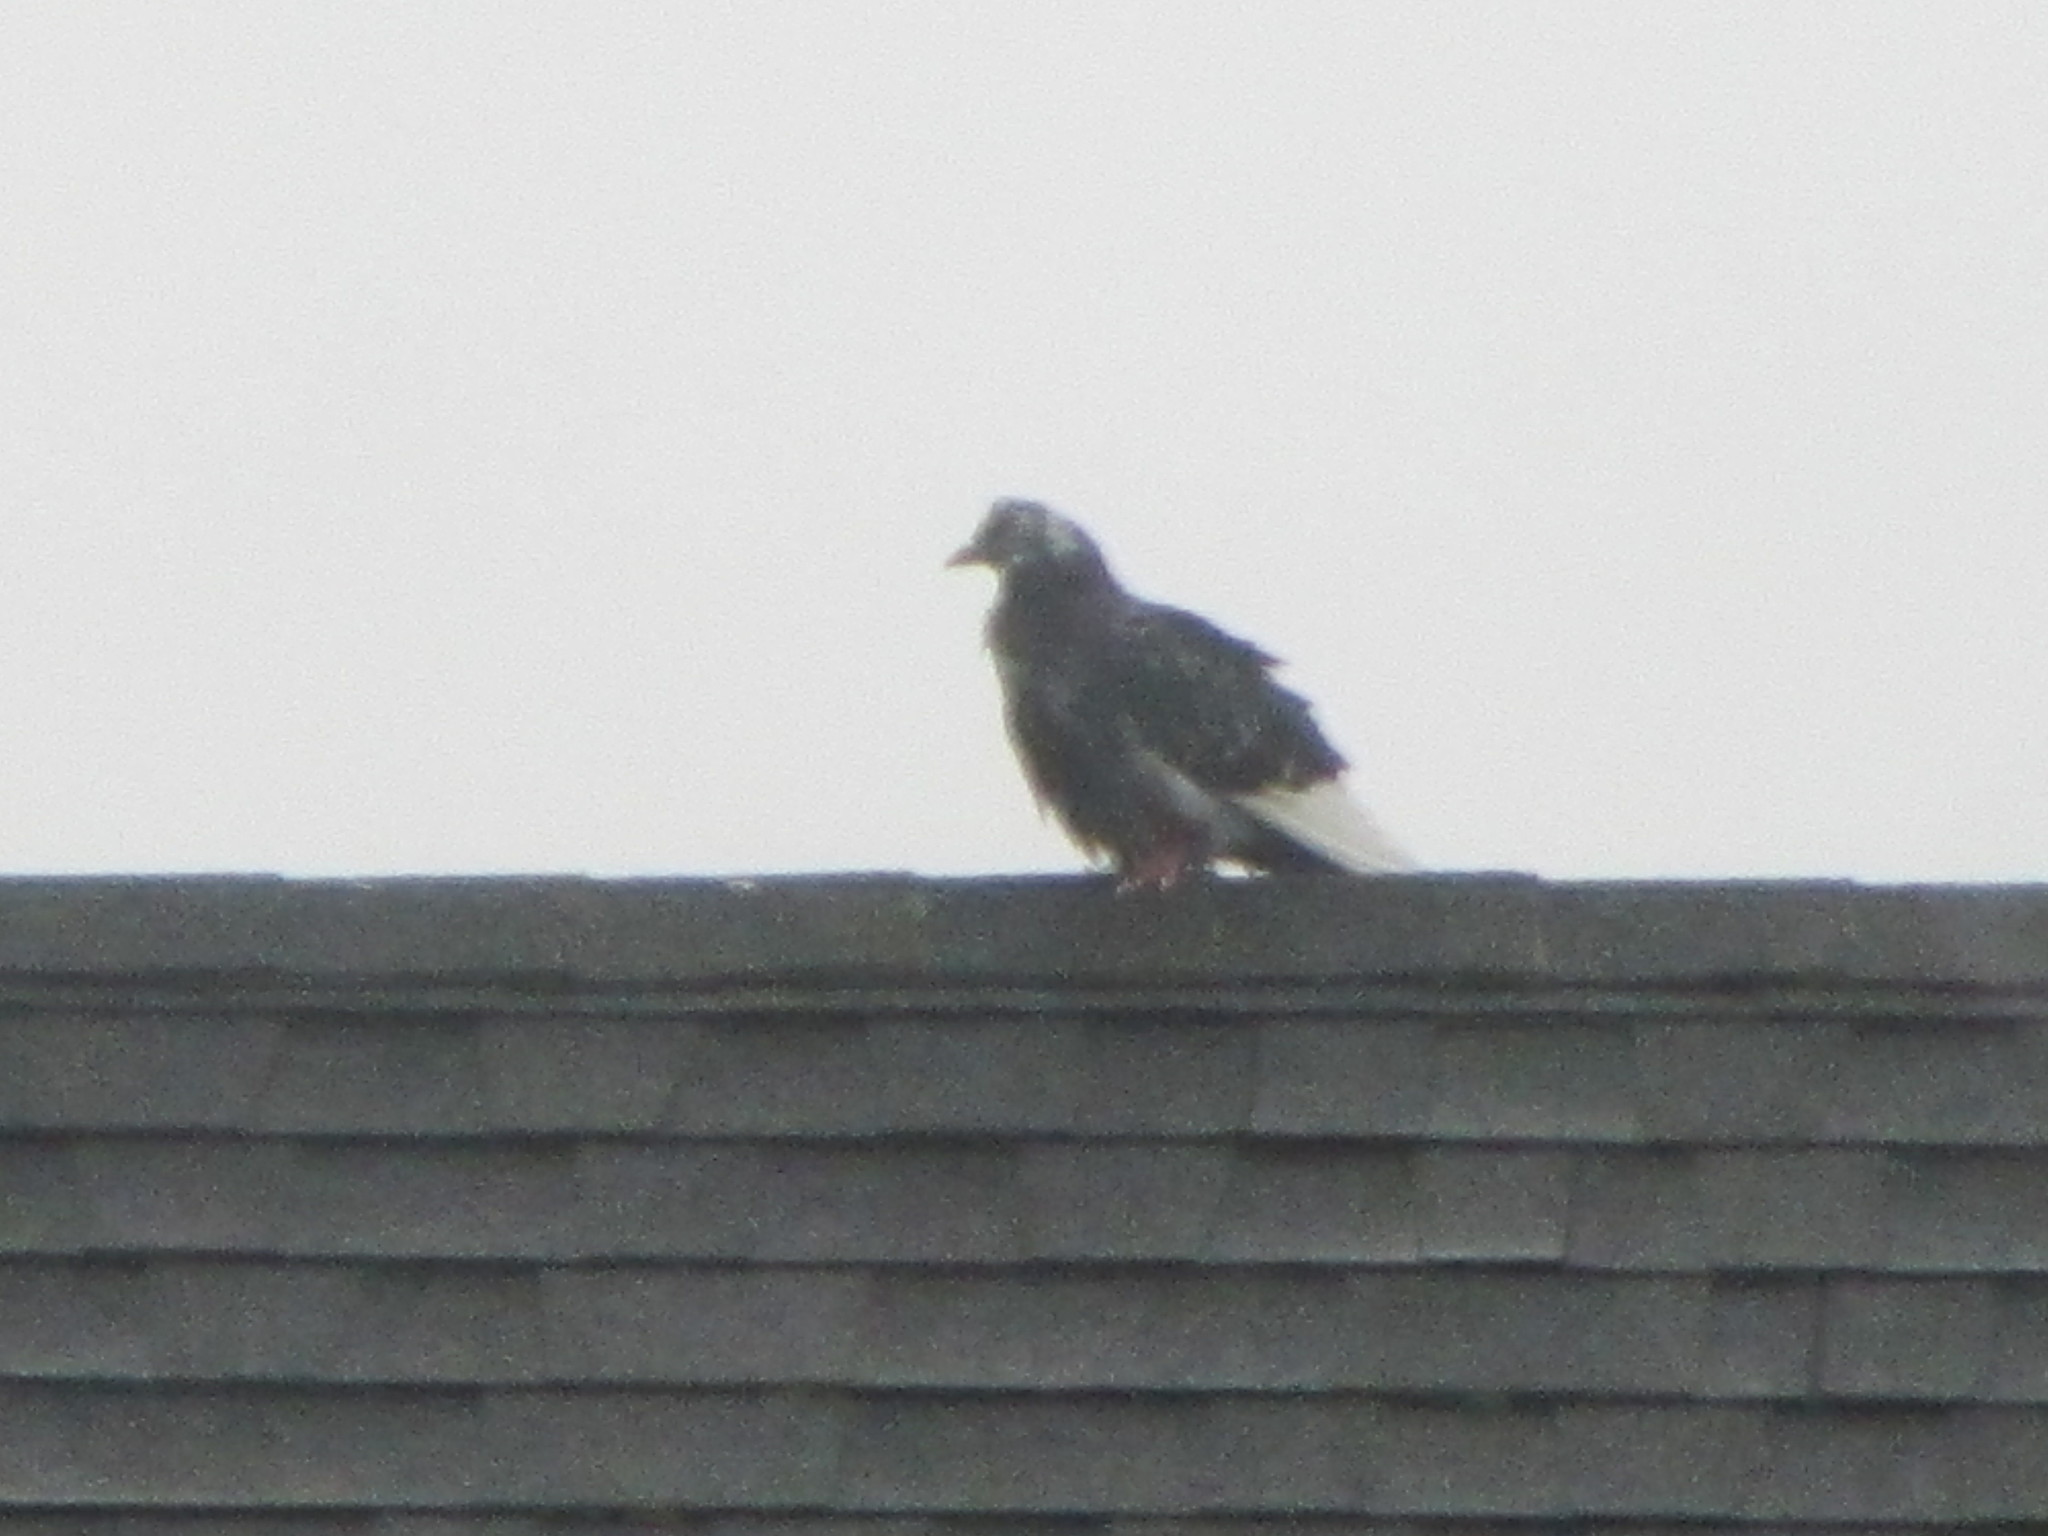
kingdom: Animalia
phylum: Chordata
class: Aves
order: Columbiformes
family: Columbidae
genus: Columba
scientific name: Columba livia
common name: Rock pigeon
